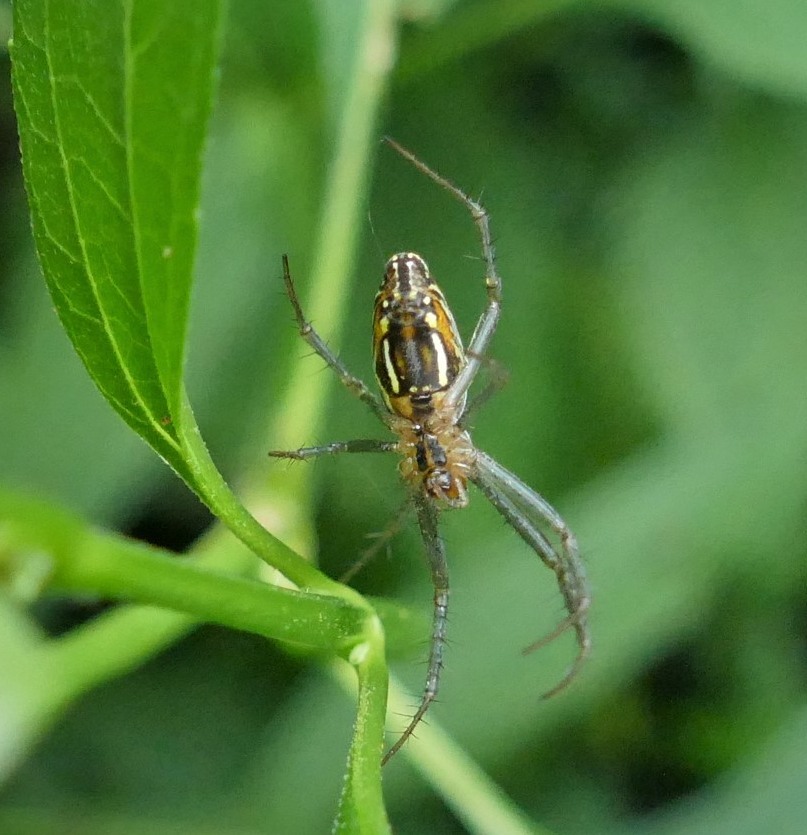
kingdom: Animalia
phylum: Arthropoda
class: Arachnida
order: Araneae
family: Araneidae
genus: Mecynogea
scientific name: Mecynogea lemniscata
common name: Orb weavers
